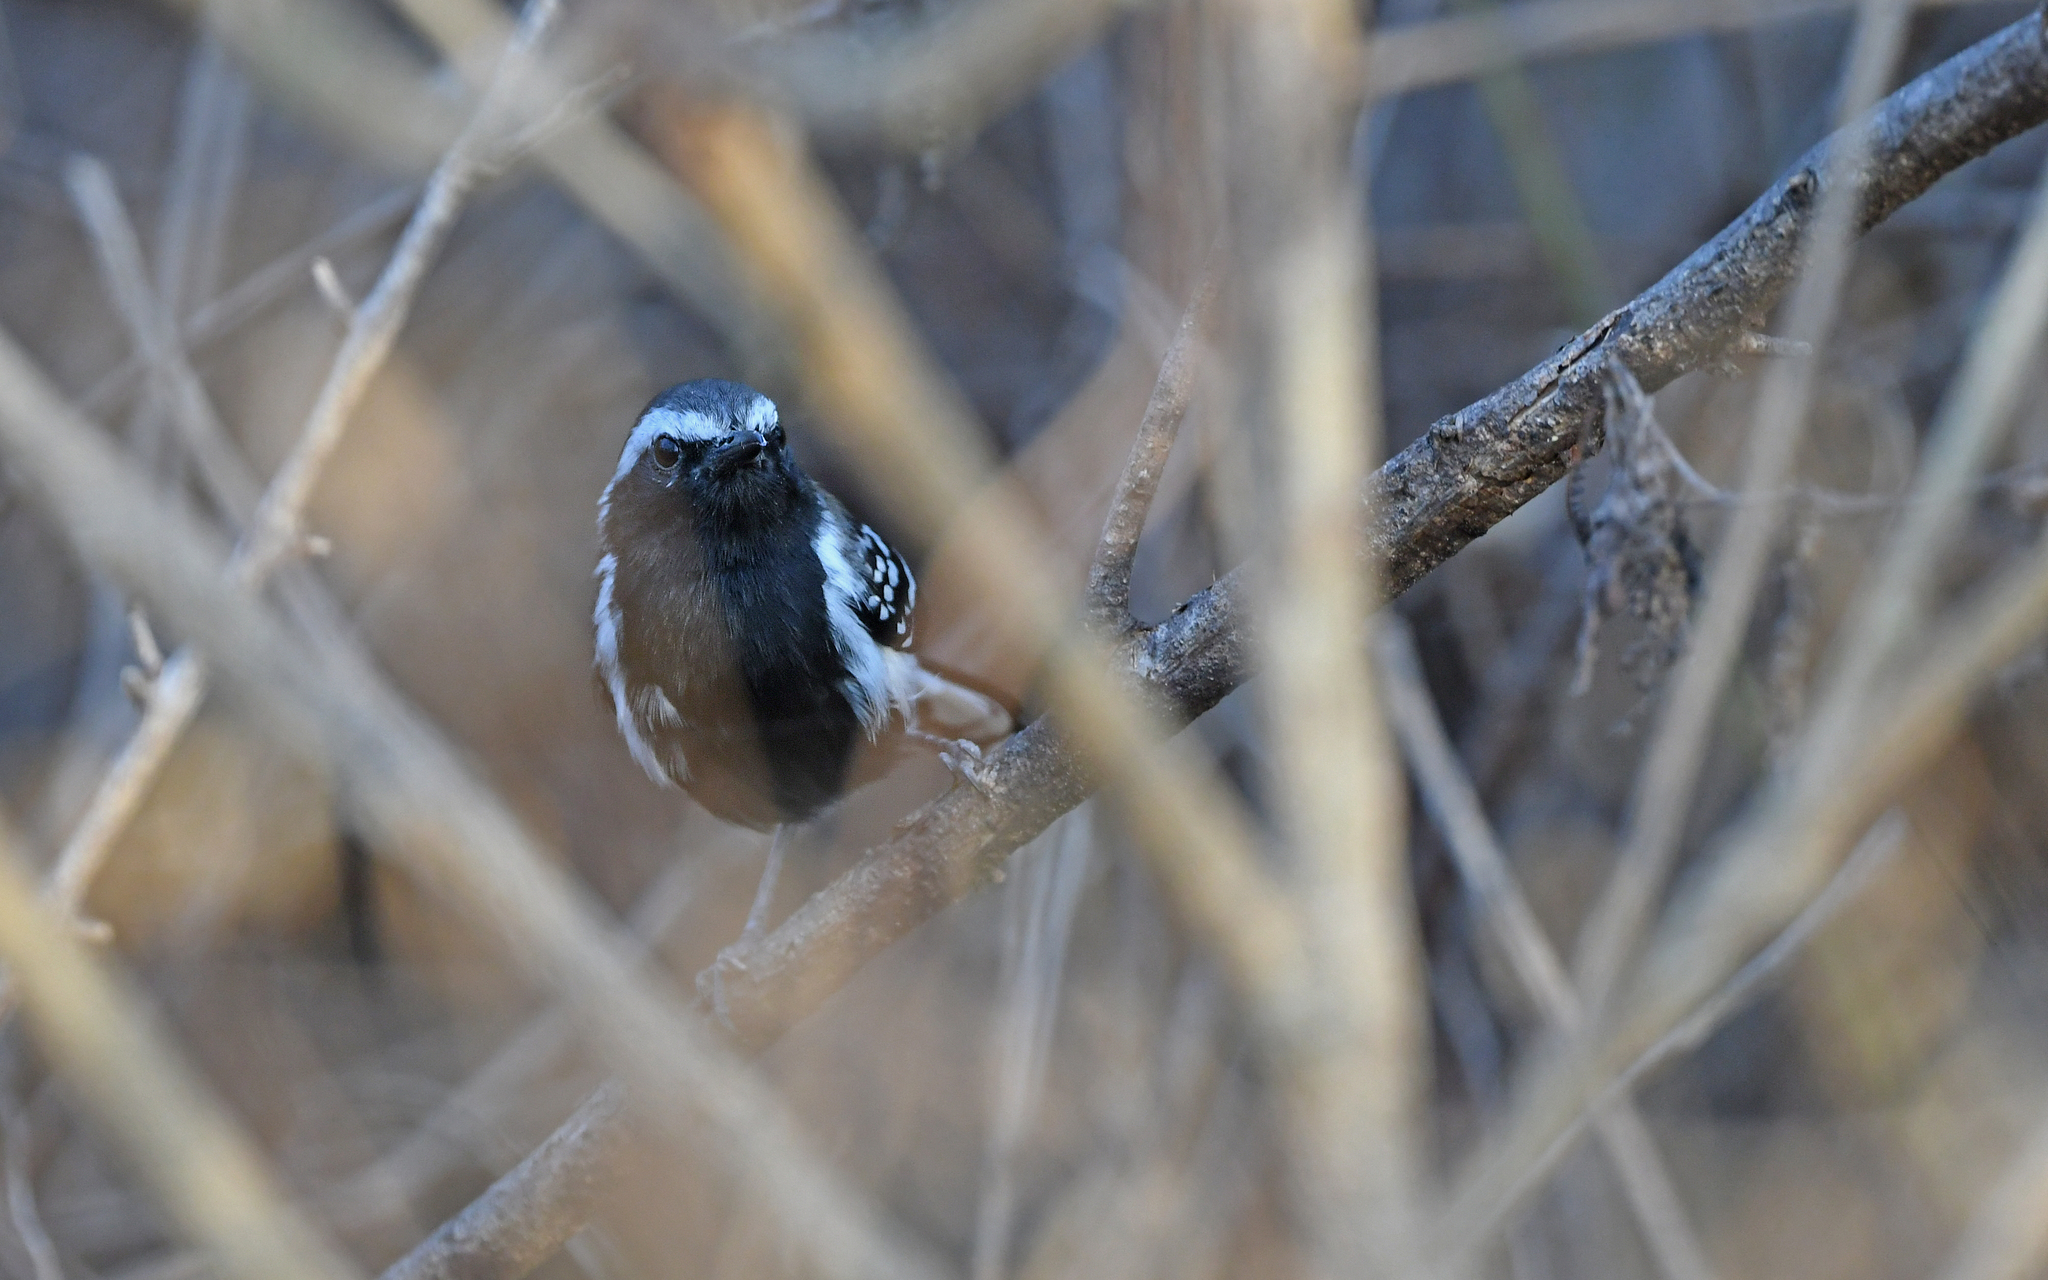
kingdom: Animalia
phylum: Chordata
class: Aves
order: Passeriformes
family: Thamnophilidae
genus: Formicivora
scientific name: Formicivora intermedia
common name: Northern white-fringed antwren
